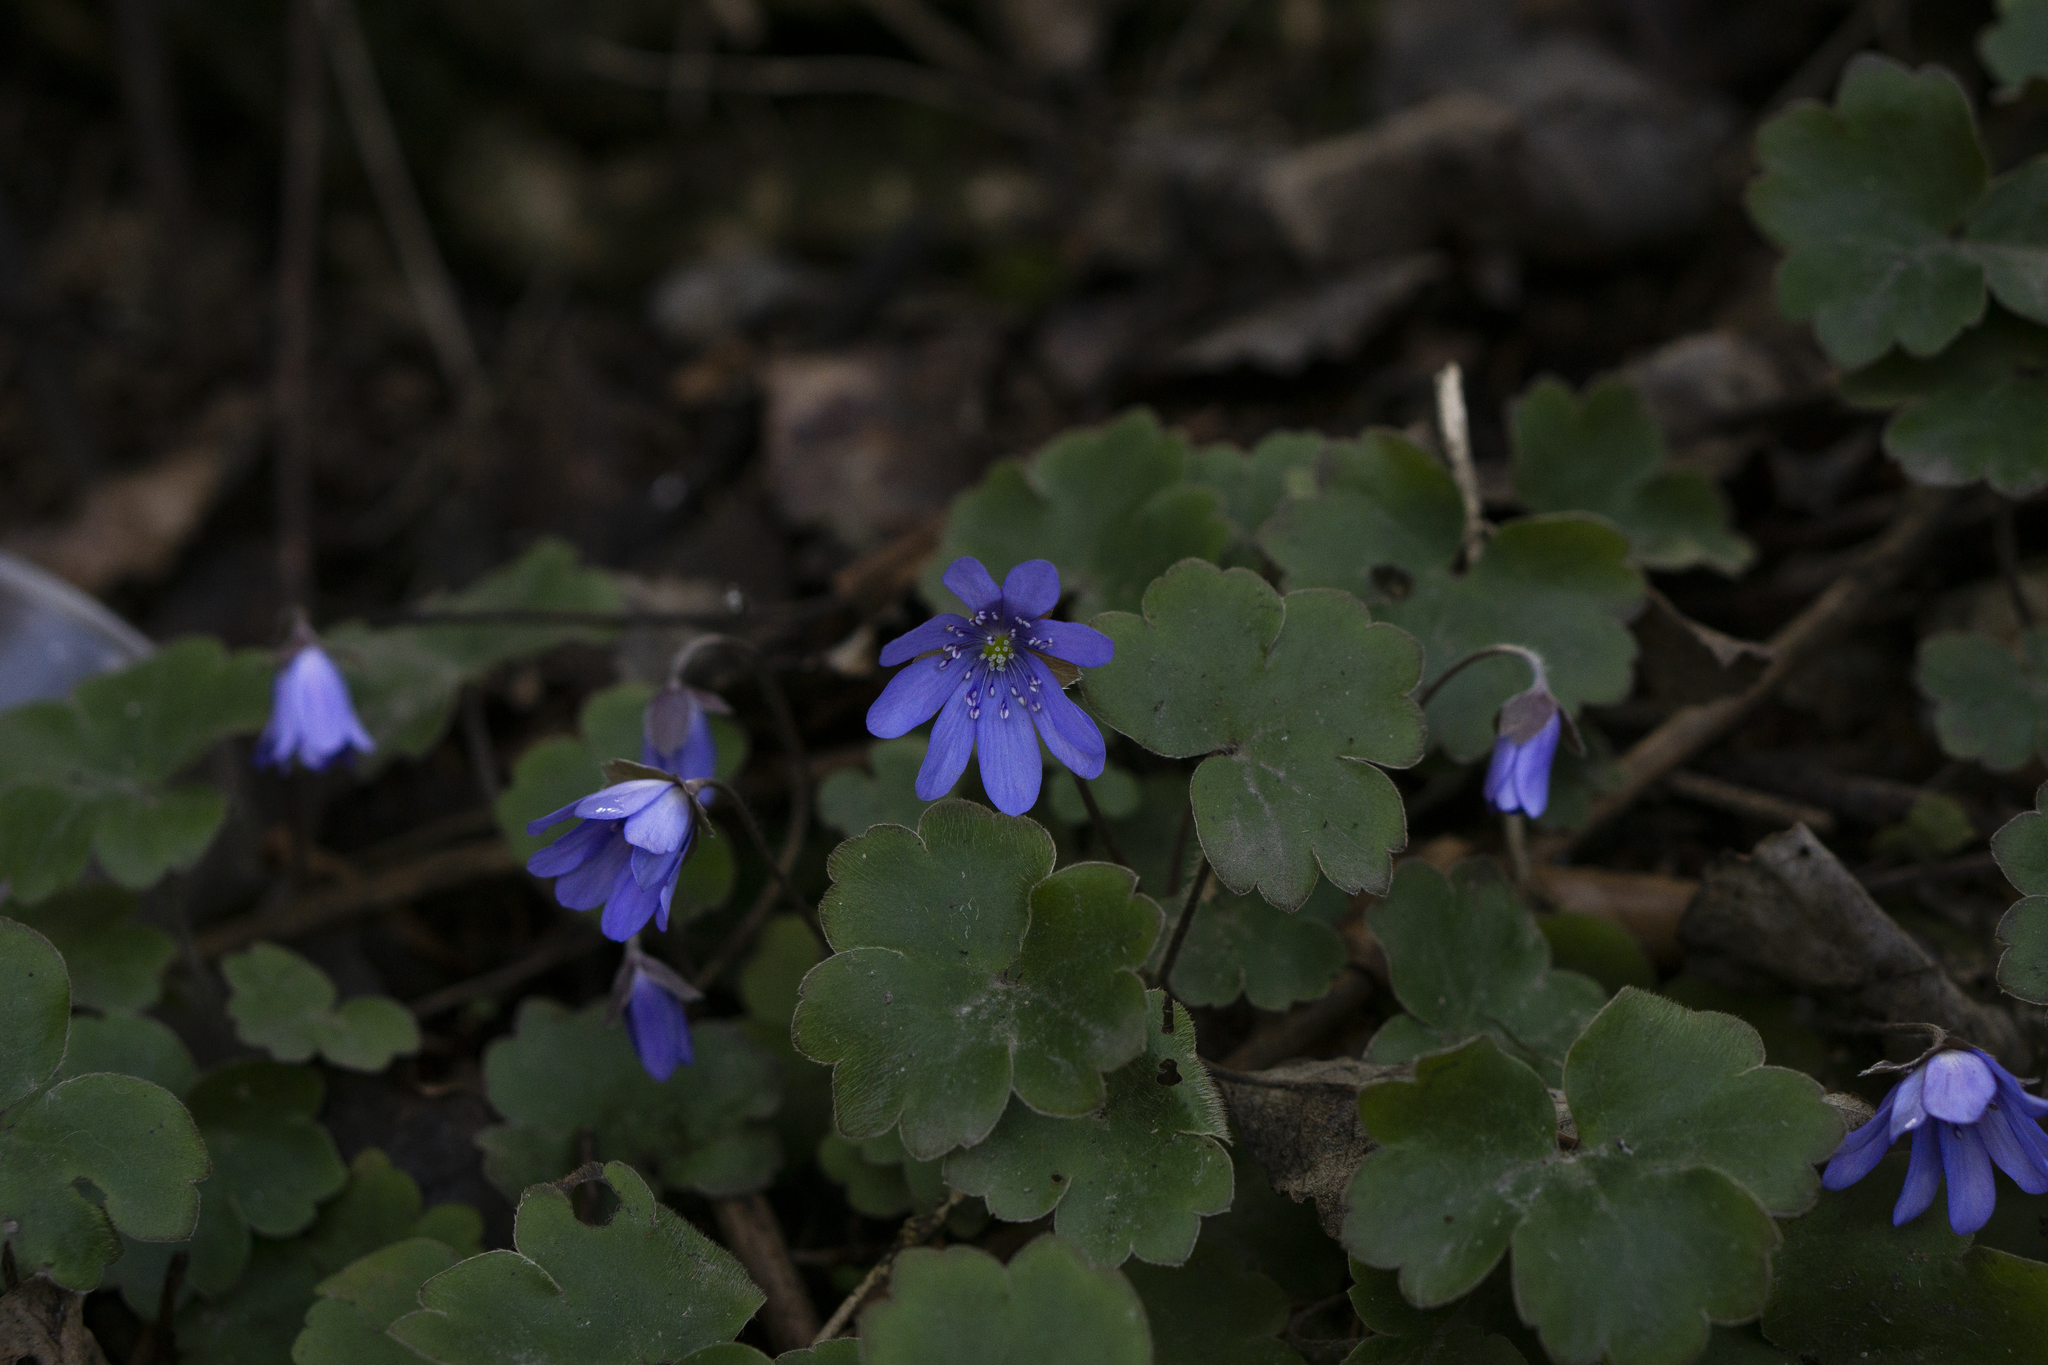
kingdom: Plantae
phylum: Tracheophyta
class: Magnoliopsida
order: Ranunculales
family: Ranunculaceae
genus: Hepatica
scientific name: Hepatica transsilvanica
